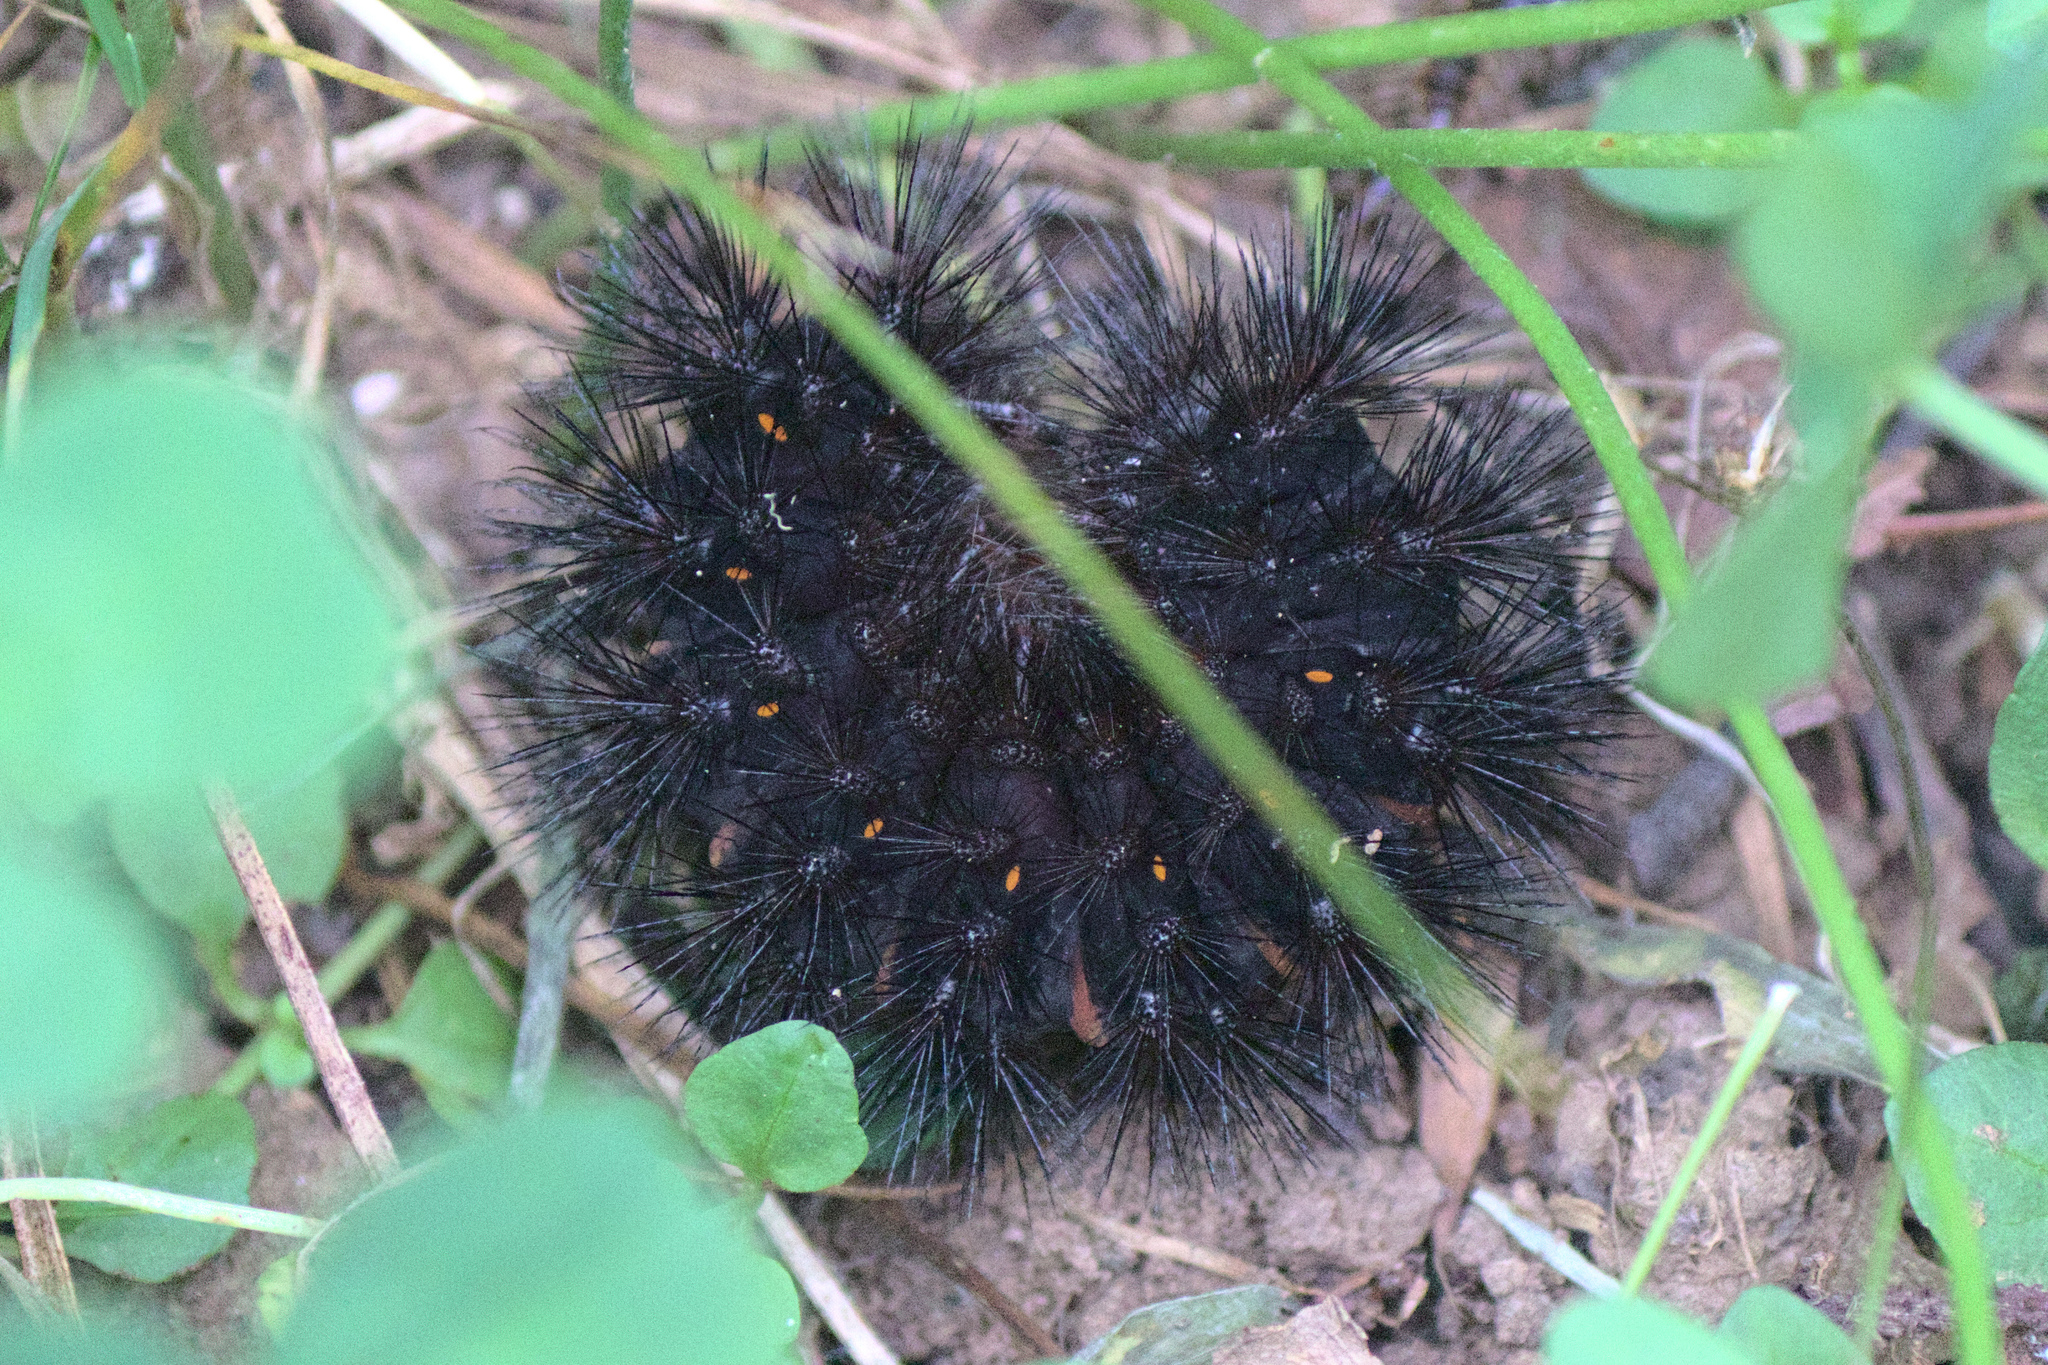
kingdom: Animalia
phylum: Arthropoda
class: Insecta
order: Lepidoptera
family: Erebidae
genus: Hypercompe
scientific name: Hypercompe scribonia
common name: Giant leopard moth
